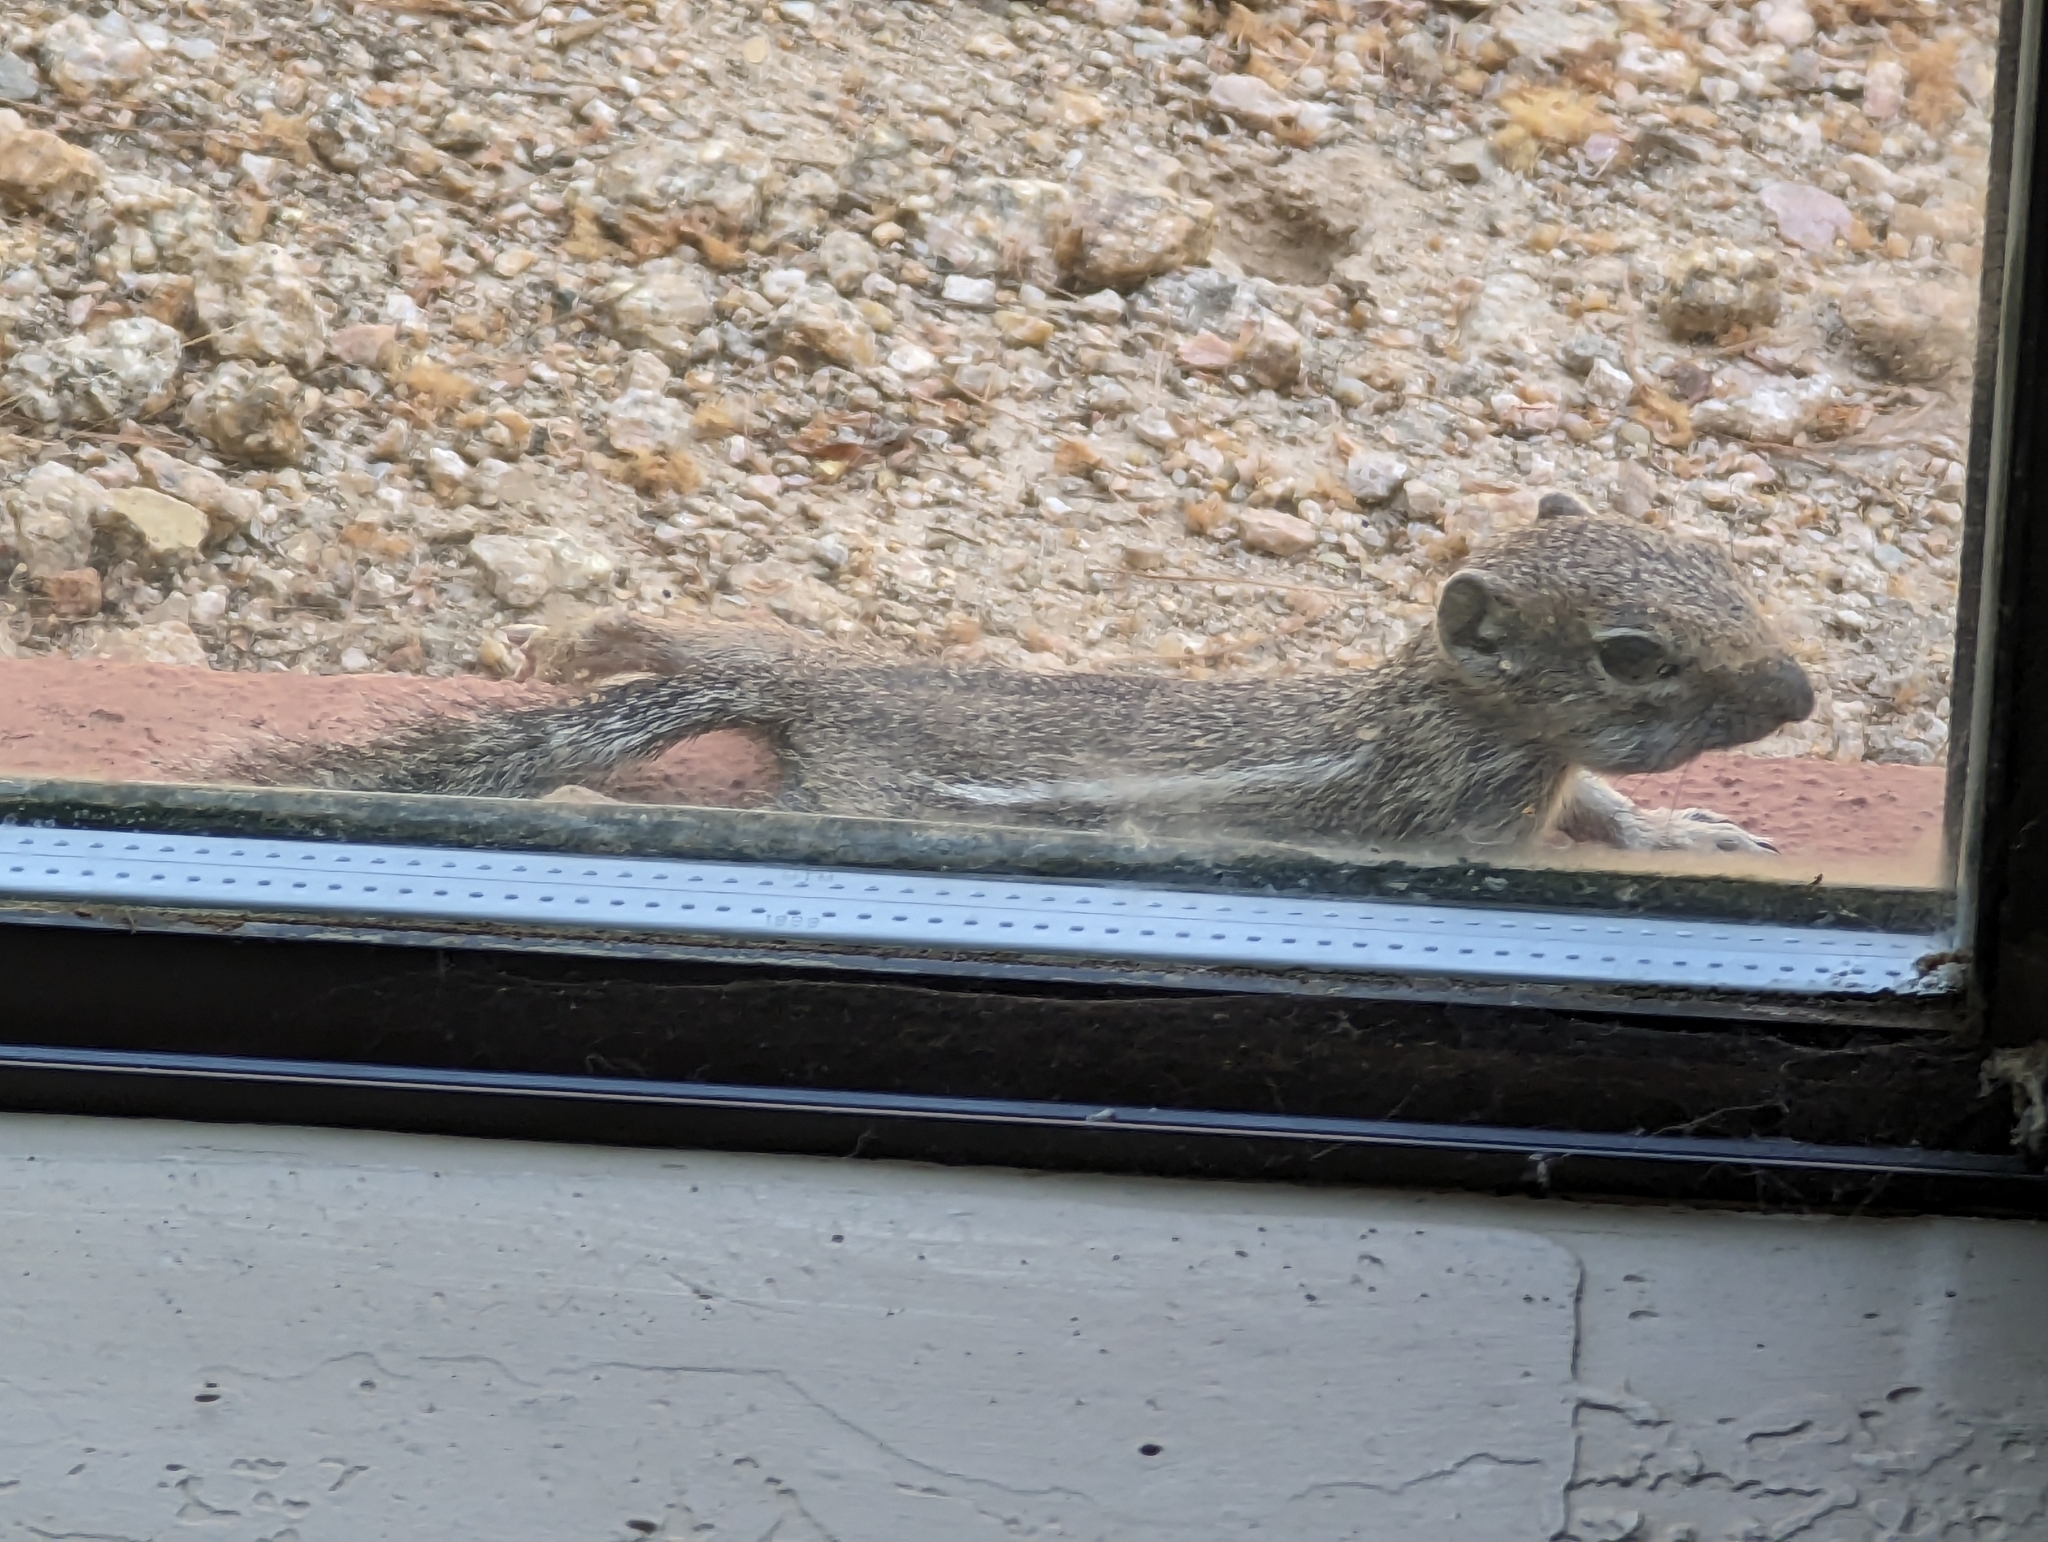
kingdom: Animalia
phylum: Chordata
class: Mammalia
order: Rodentia
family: Sciuridae
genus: Ammospermophilus
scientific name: Ammospermophilus harrisii
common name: Harris's antelope squirrel
